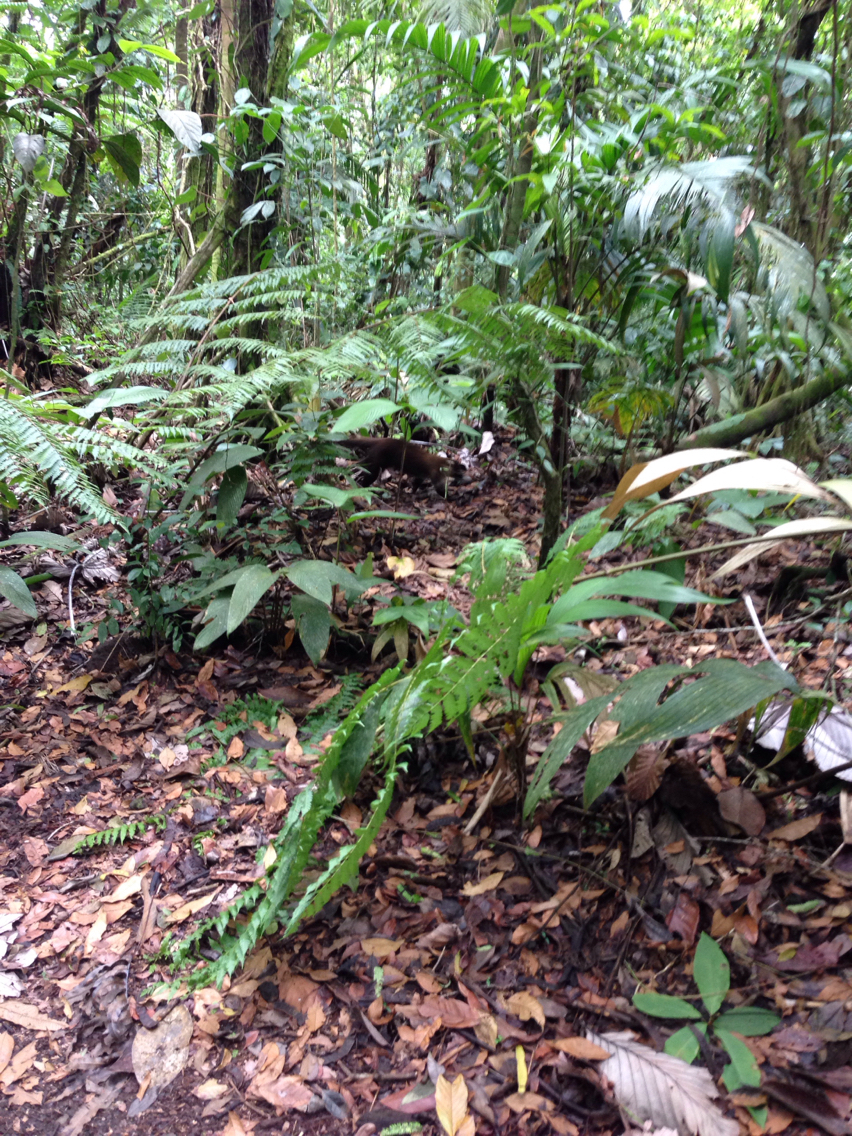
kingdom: Animalia
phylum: Chordata
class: Mammalia
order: Carnivora
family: Procyonidae
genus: Nasua
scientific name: Nasua narica
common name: White-nosed coati
